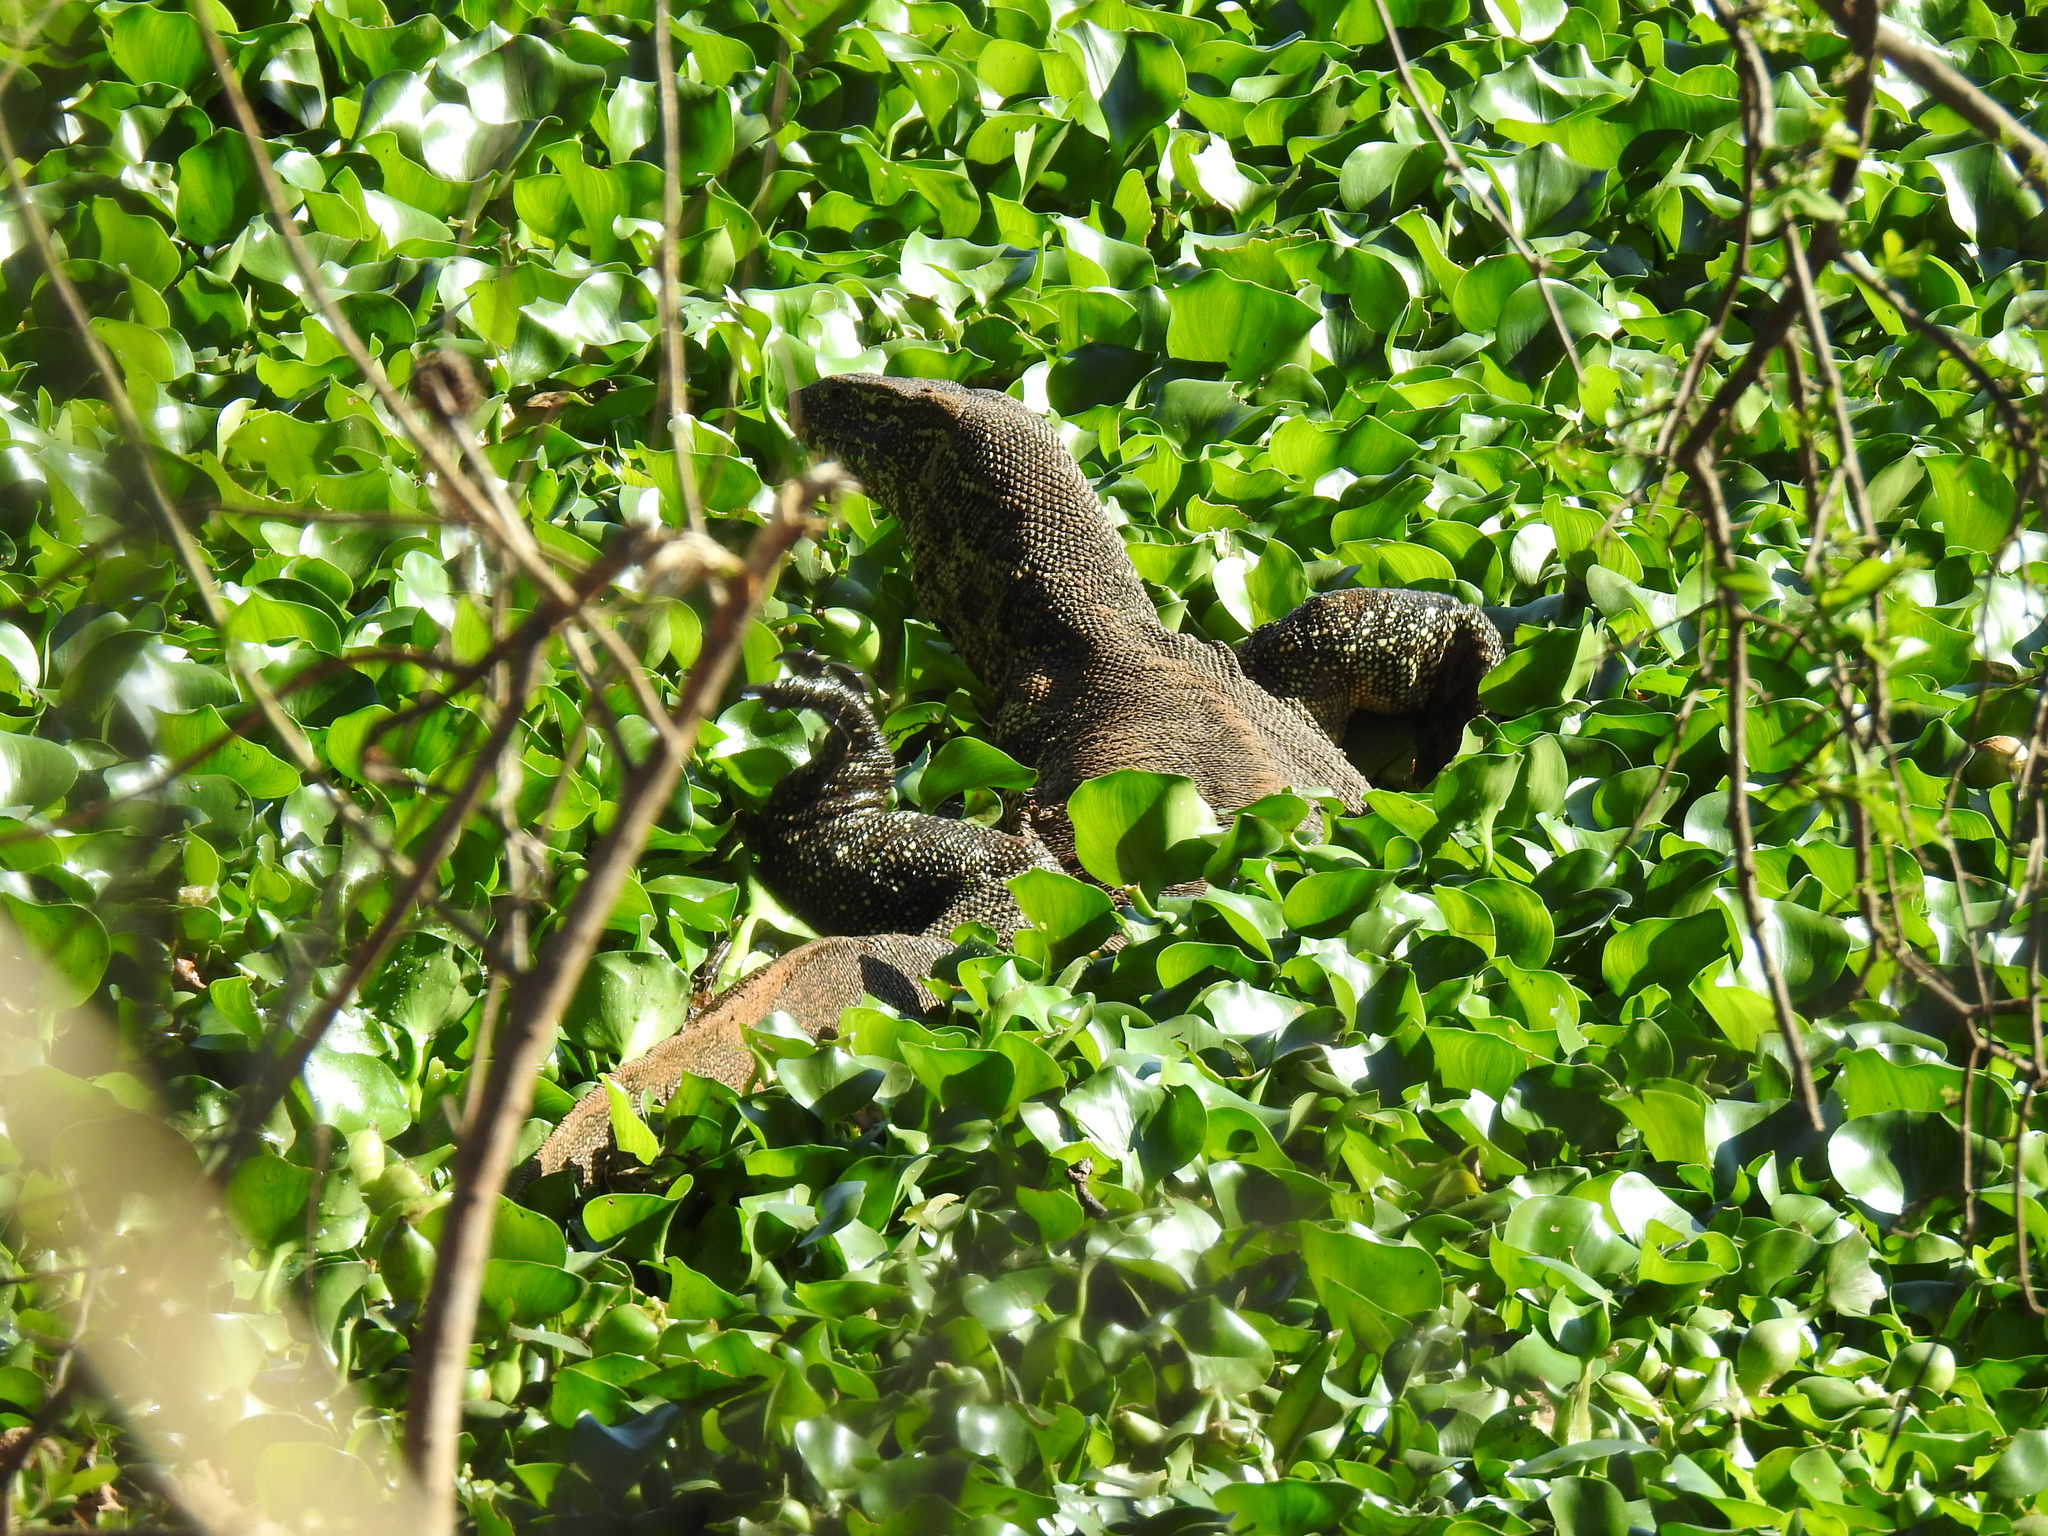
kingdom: Animalia
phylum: Chordata
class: Squamata
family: Varanidae
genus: Varanus
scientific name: Varanus niloticus
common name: Nile monitor
